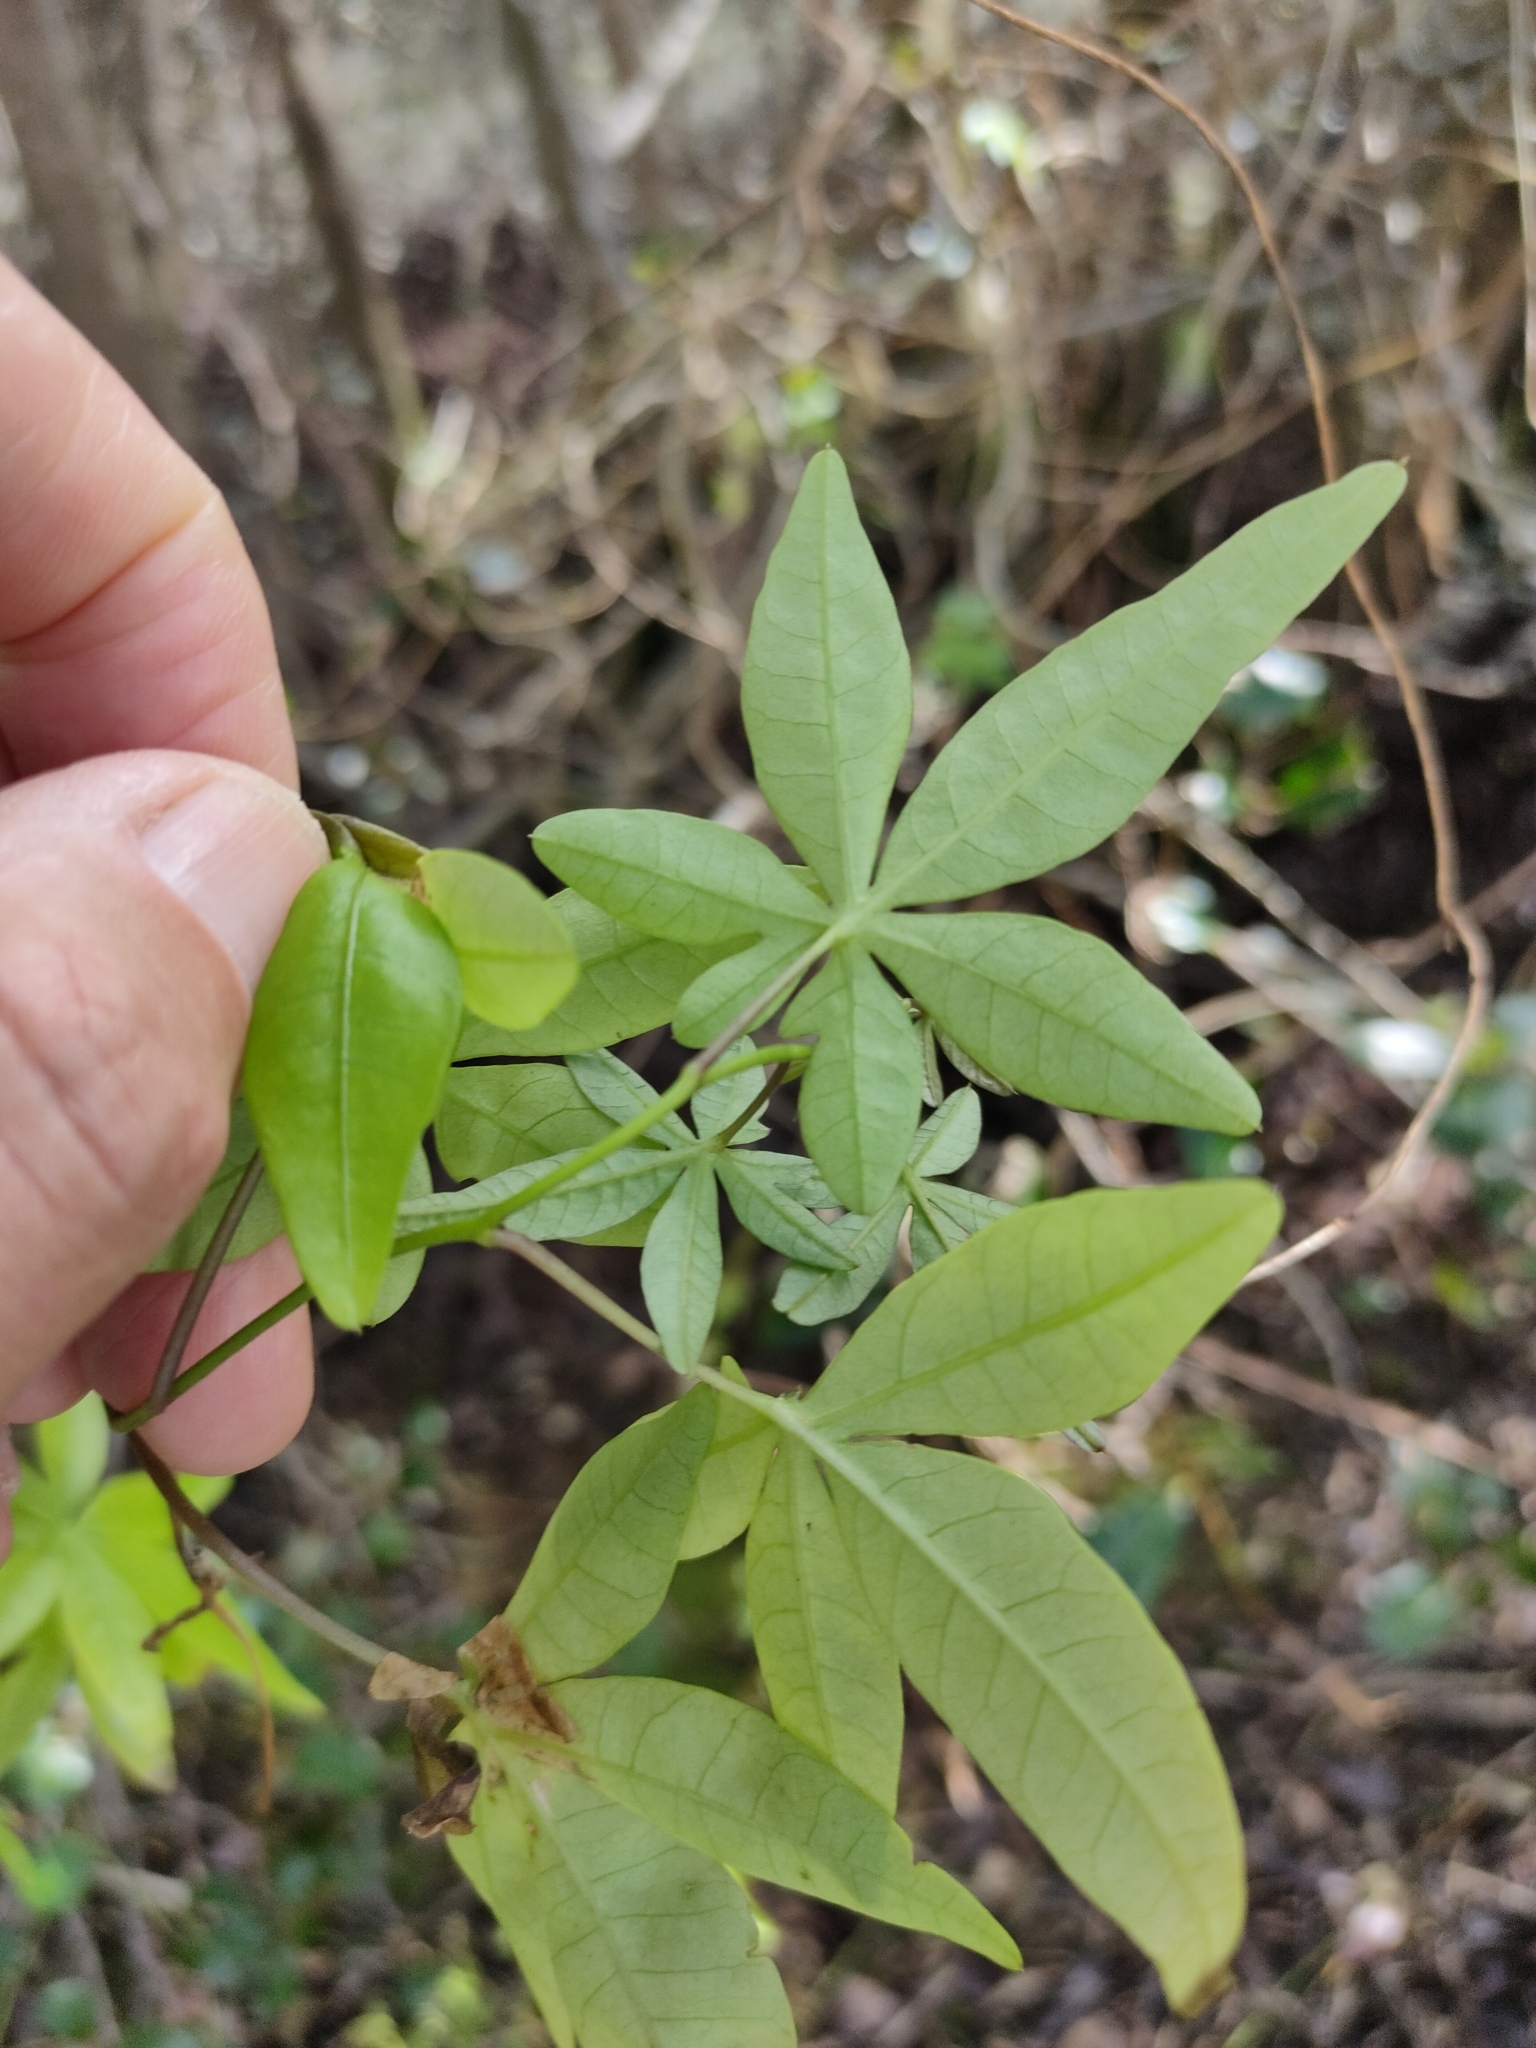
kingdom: Plantae
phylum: Tracheophyta
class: Magnoliopsida
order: Solanales
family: Convolvulaceae
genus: Ipomoea
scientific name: Ipomoea cairica
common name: Mile a minute vine
